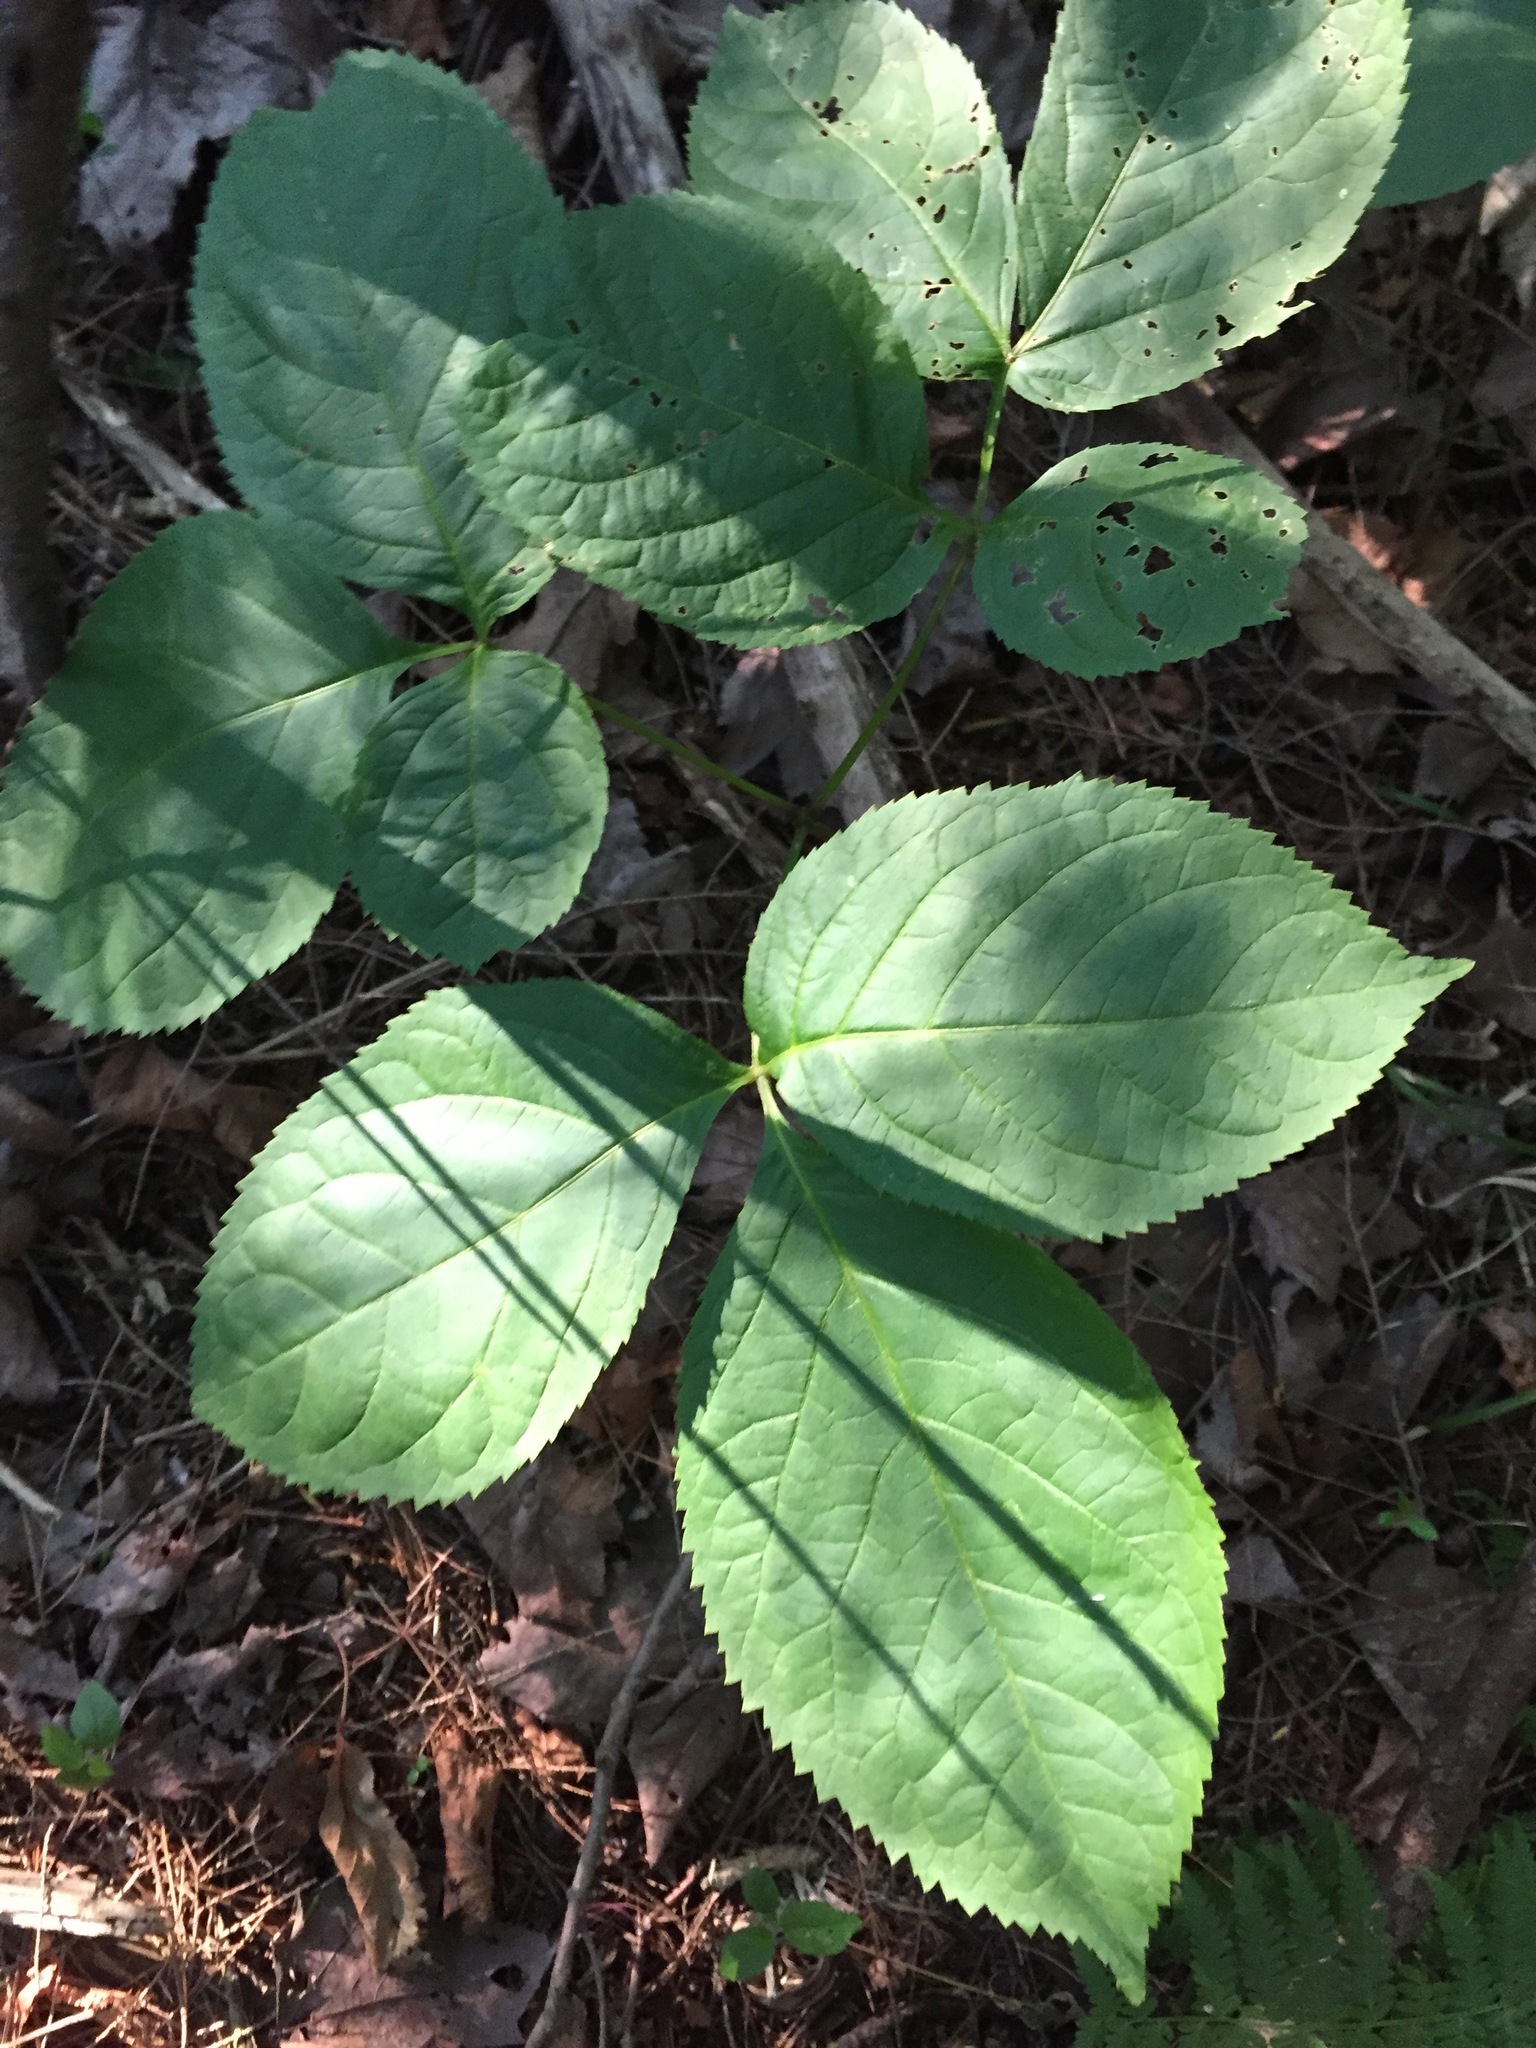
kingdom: Plantae
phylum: Tracheophyta
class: Magnoliopsida
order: Apiales
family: Araliaceae
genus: Aralia
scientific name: Aralia nudicaulis
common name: Wild sarsaparilla
